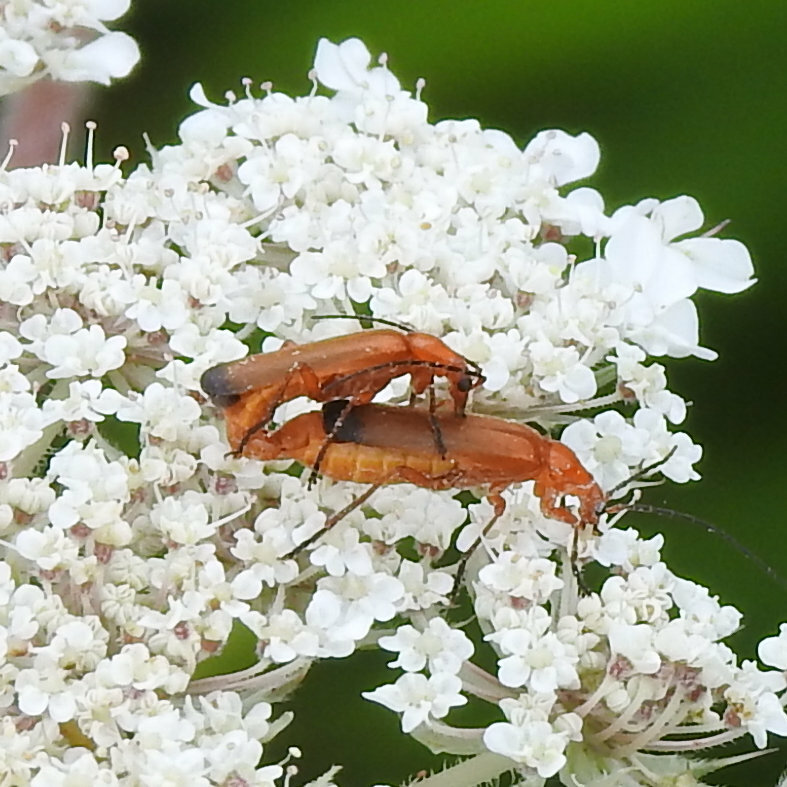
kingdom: Animalia
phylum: Arthropoda
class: Insecta
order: Coleoptera
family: Cantharidae
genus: Rhagonycha
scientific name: Rhagonycha fulva
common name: Common red soldier beetle
